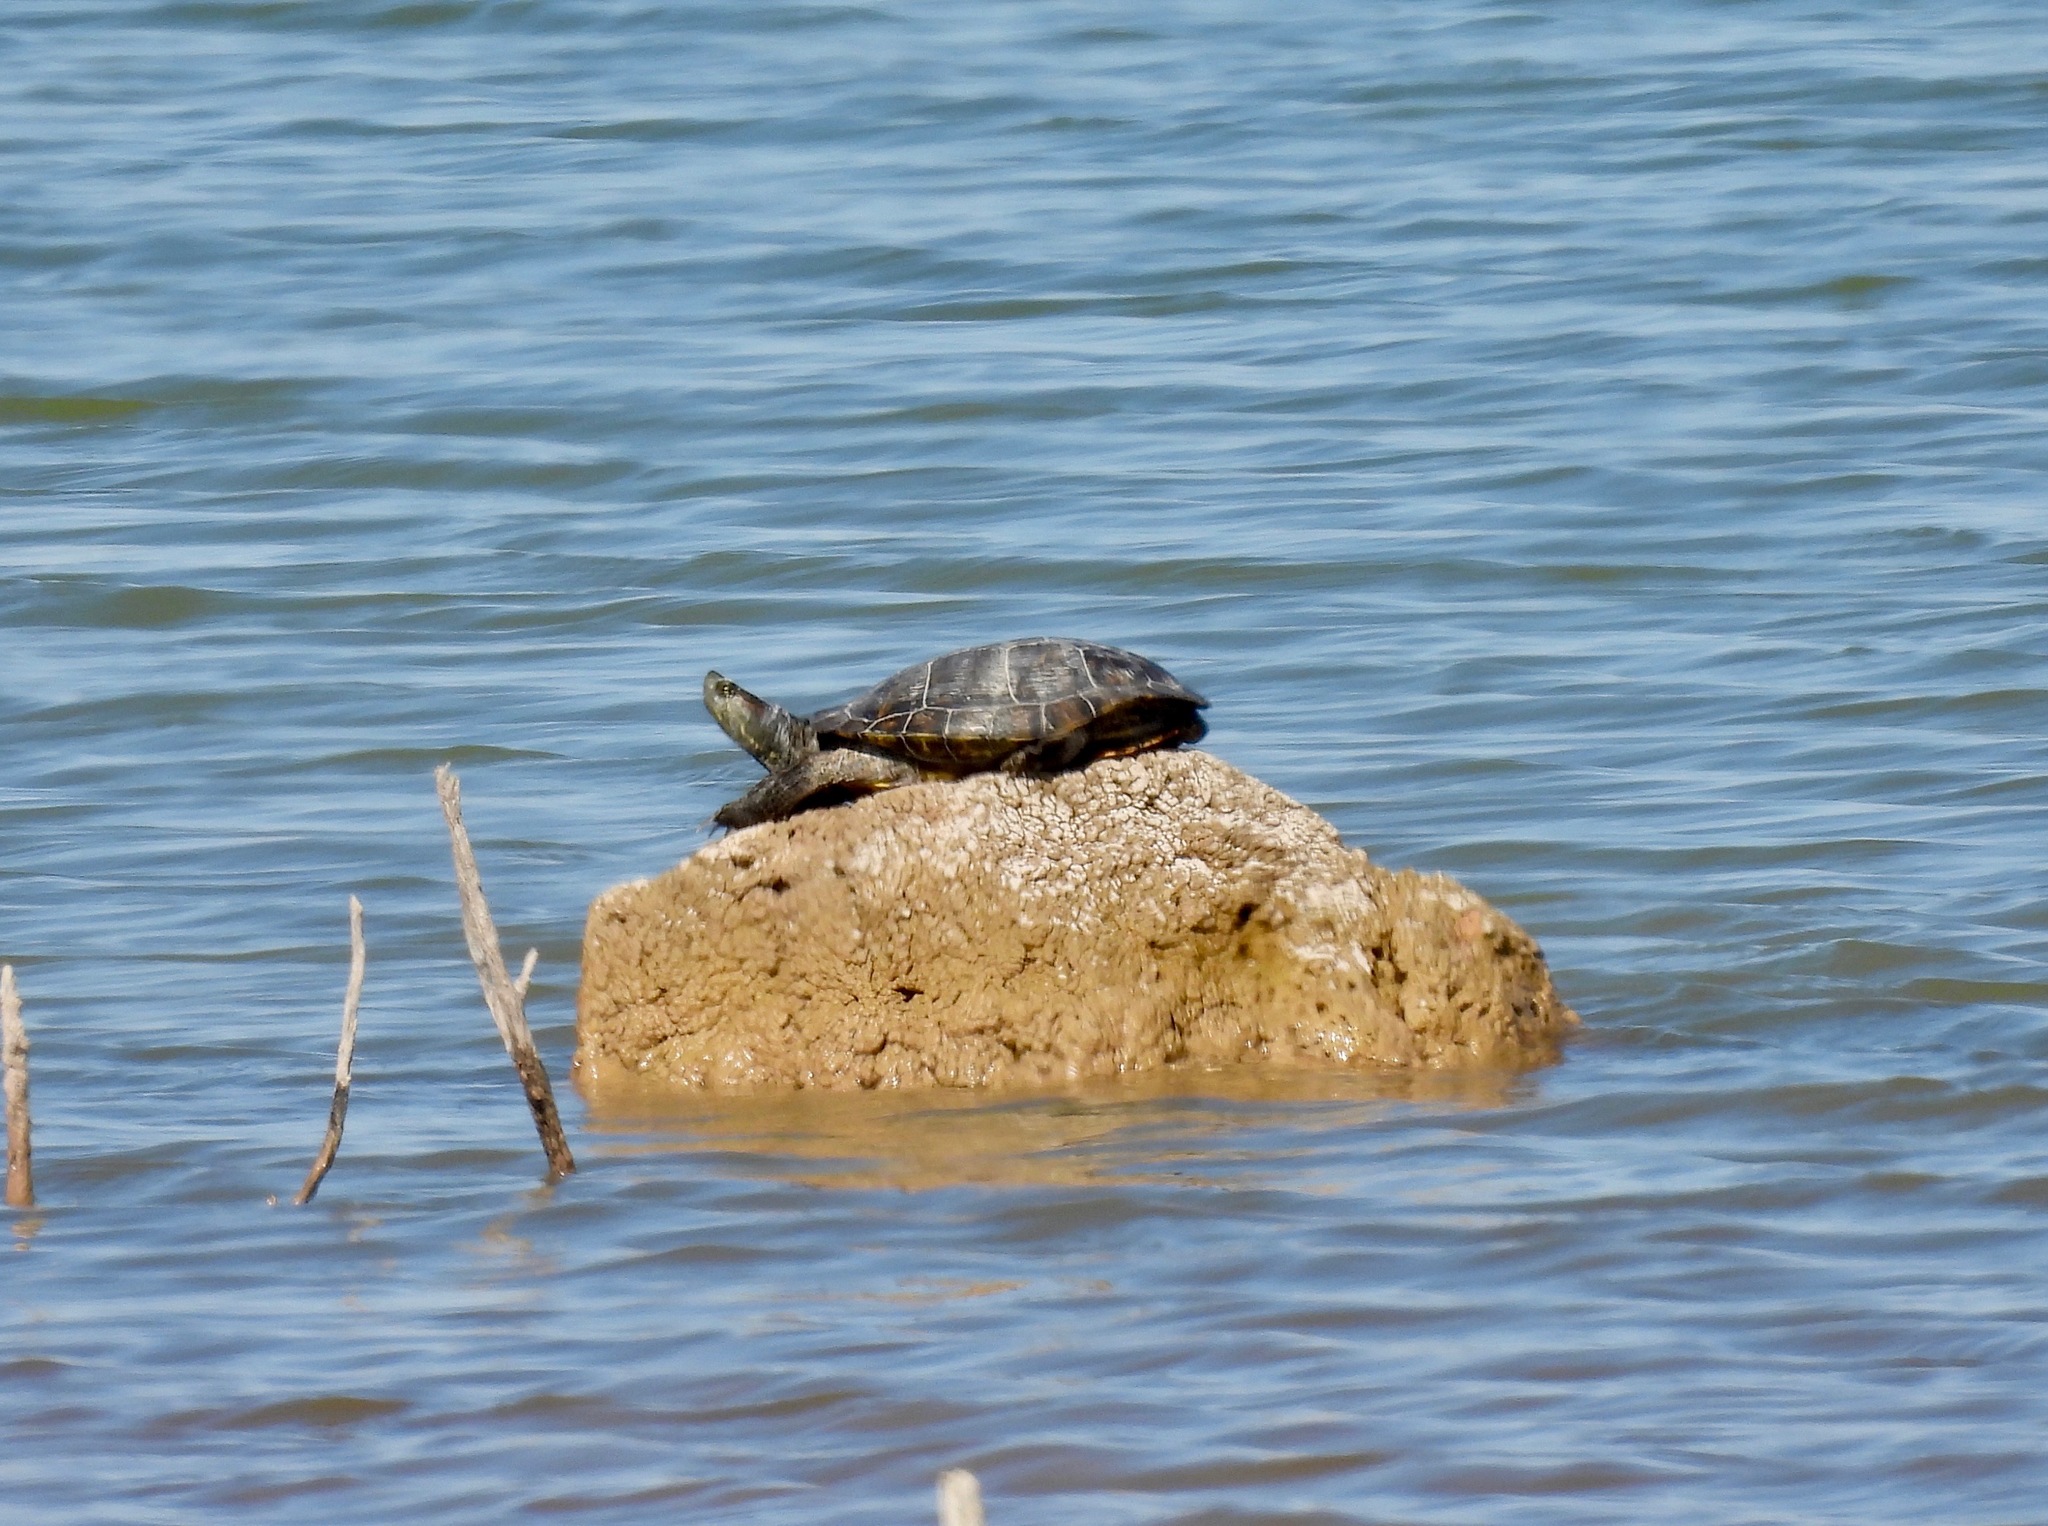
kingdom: Animalia
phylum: Chordata
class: Testudines
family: Emydidae
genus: Trachemys
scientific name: Trachemys scripta
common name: Slider
